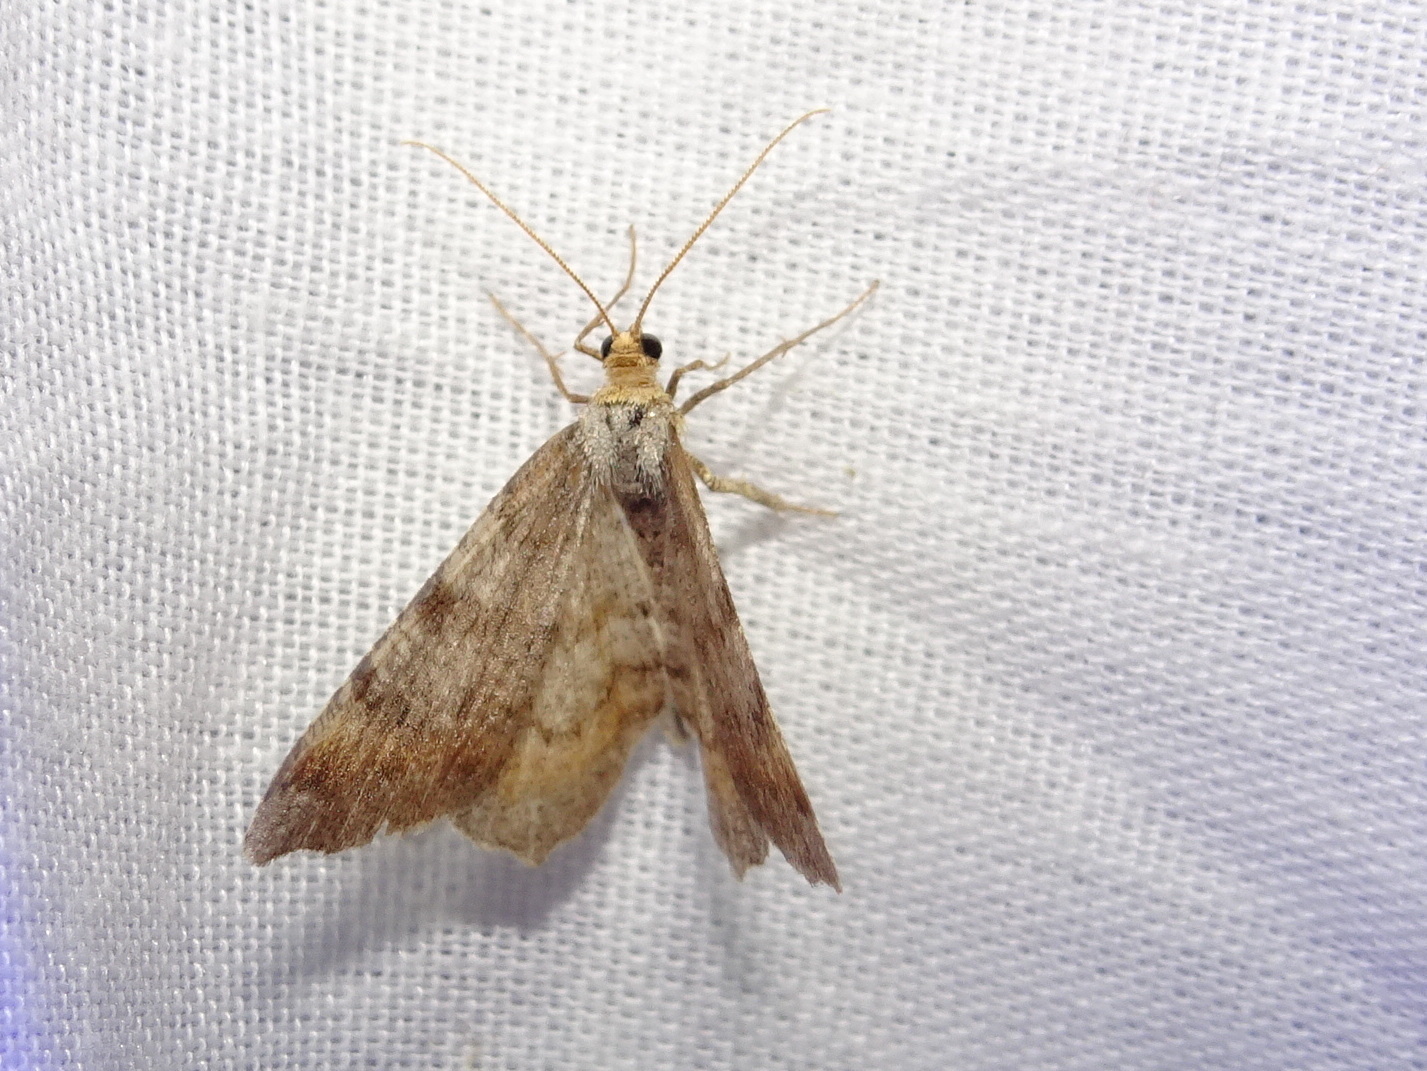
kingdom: Animalia
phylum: Arthropoda
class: Insecta
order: Lepidoptera
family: Geometridae
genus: Macaria
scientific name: Macaria liturata
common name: Tawny-barred angle
